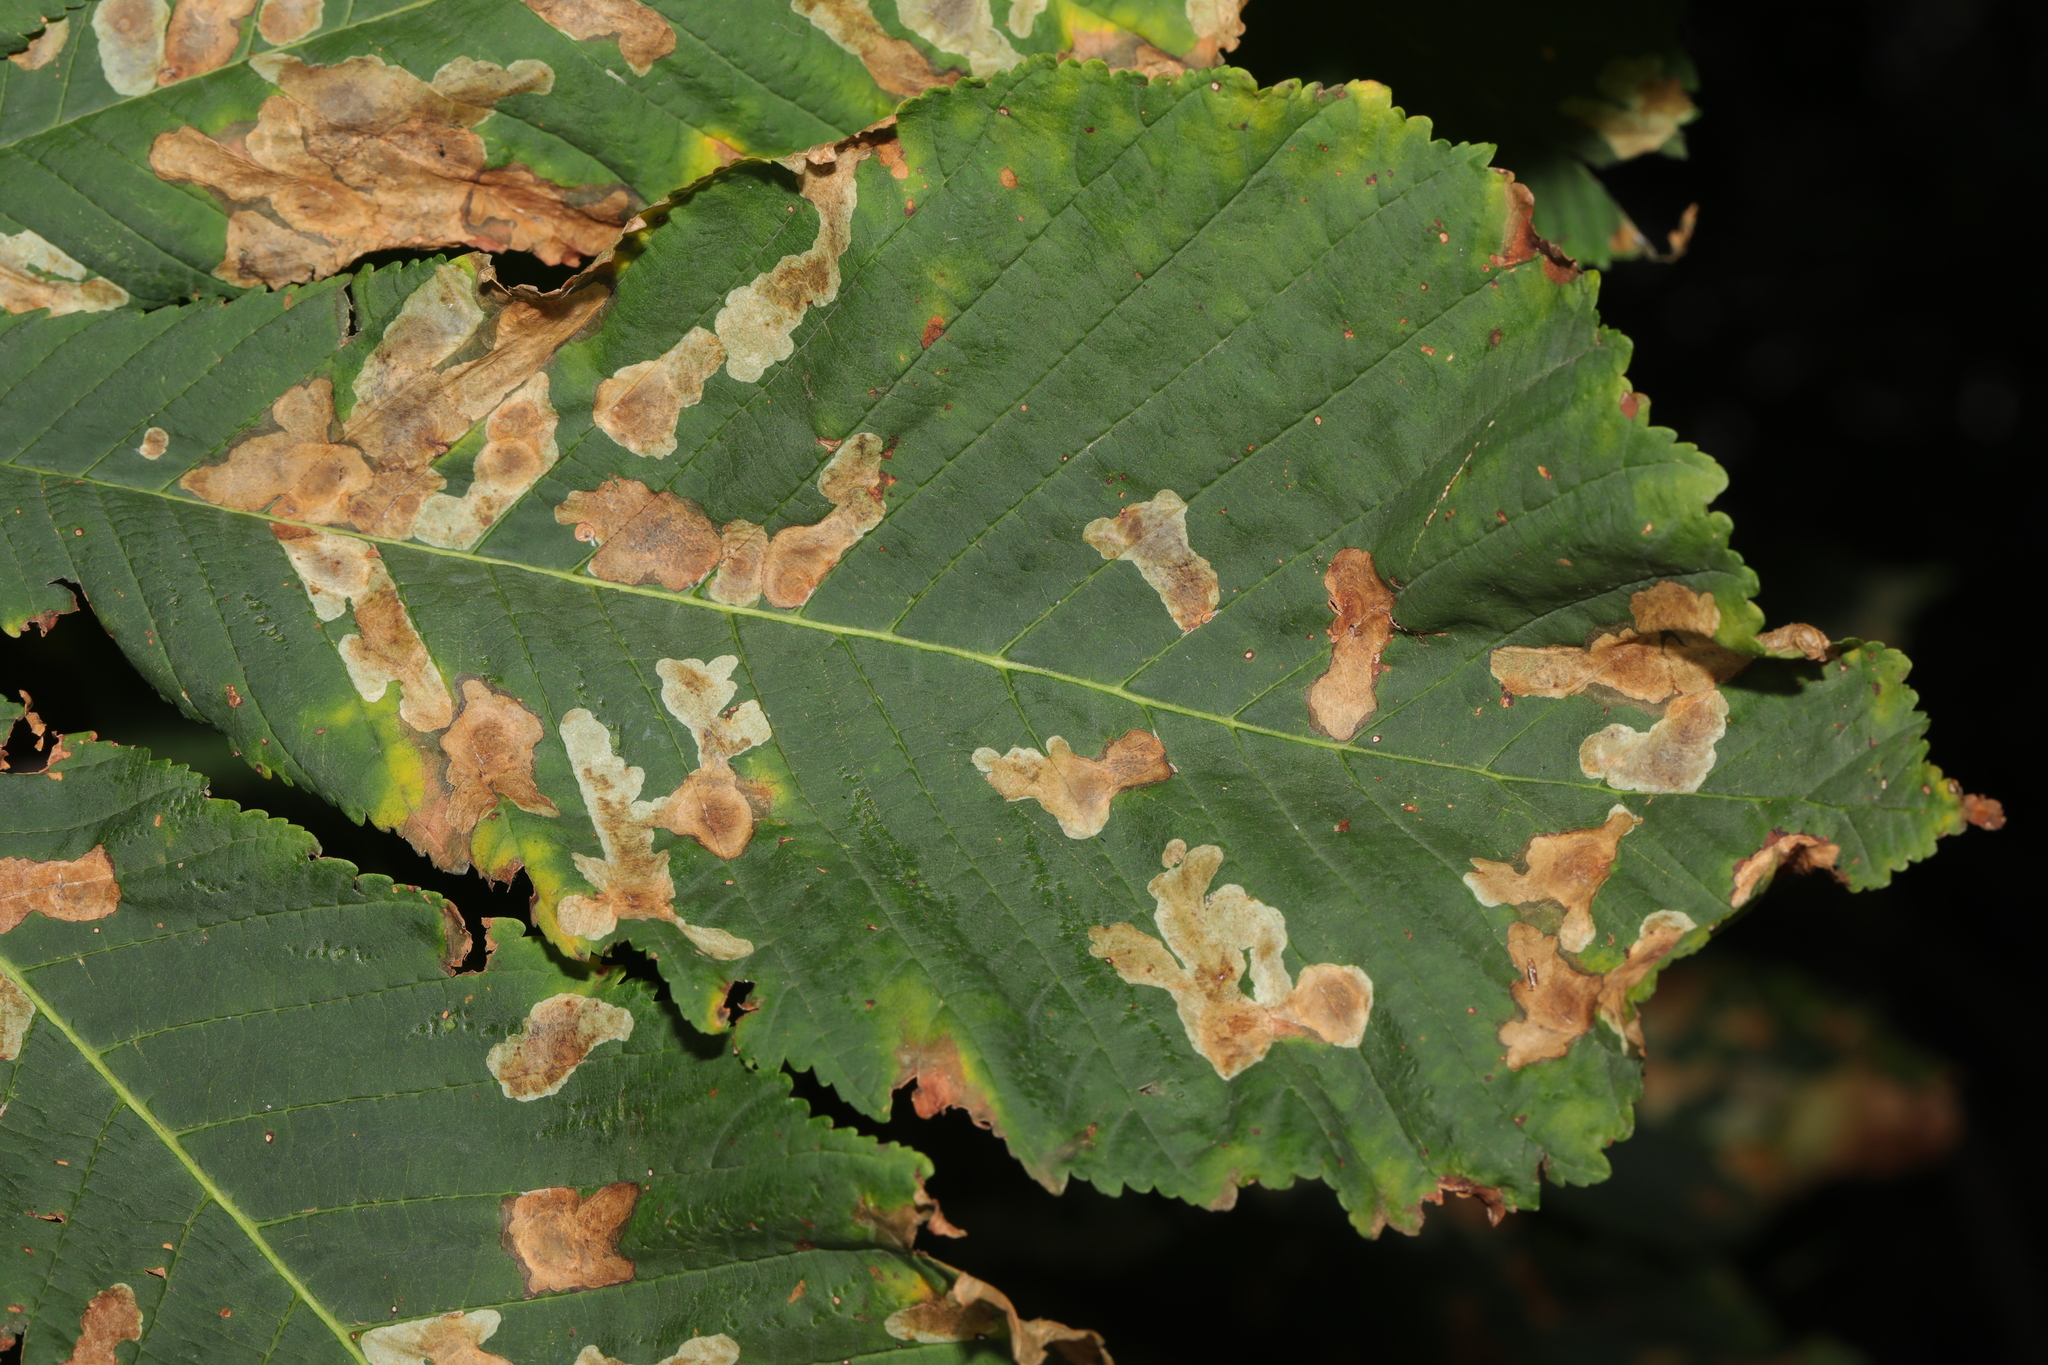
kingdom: Animalia
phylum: Arthropoda
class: Insecta
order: Lepidoptera
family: Gracillariidae
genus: Cameraria
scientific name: Cameraria ohridella
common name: Horse-chestnut leaf-miner
